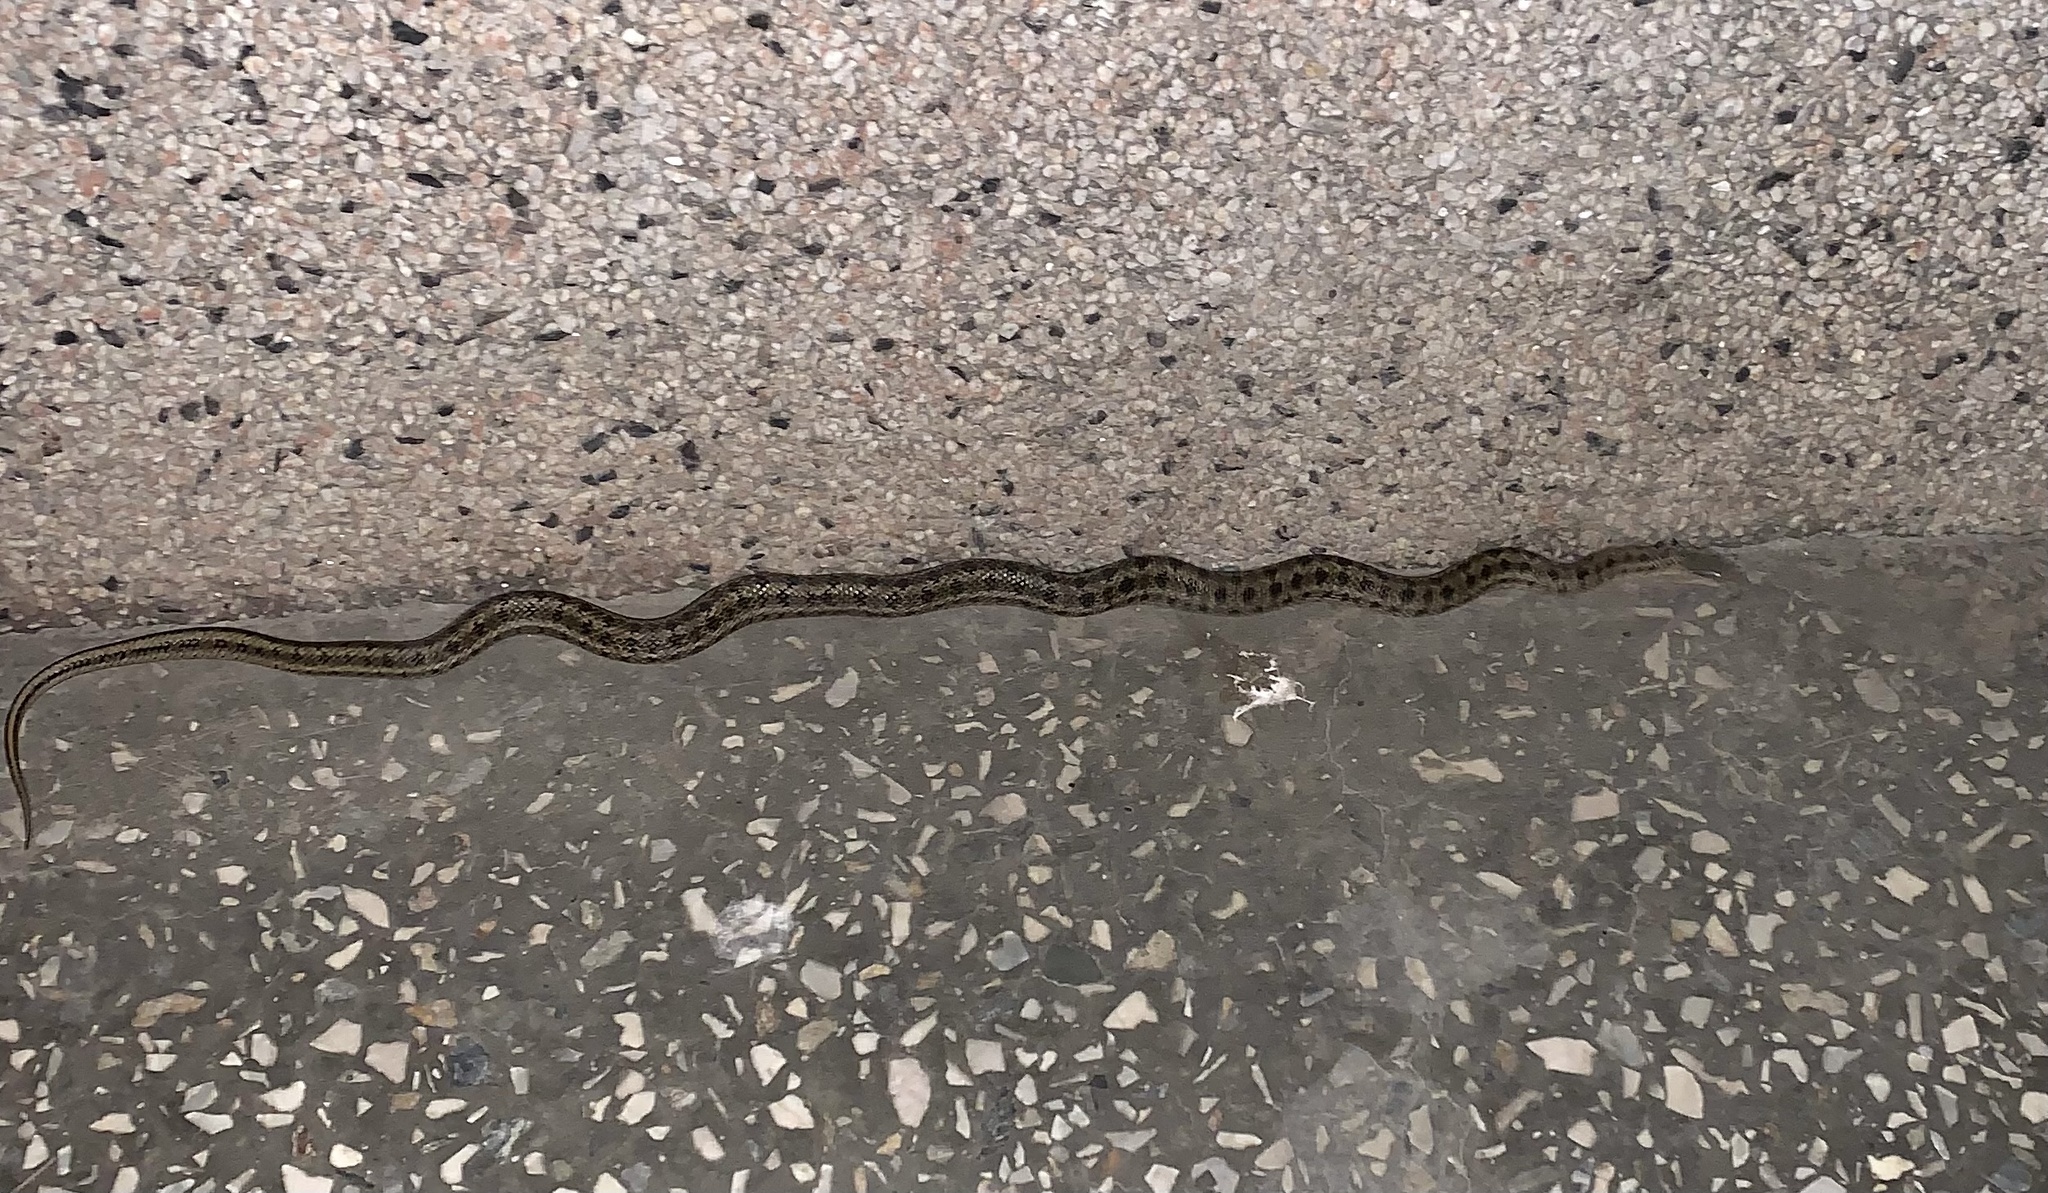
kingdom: Animalia
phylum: Chordata
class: Squamata
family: Colubridae
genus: Elaphe
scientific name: Elaphe dione
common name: Dione ratsnake
